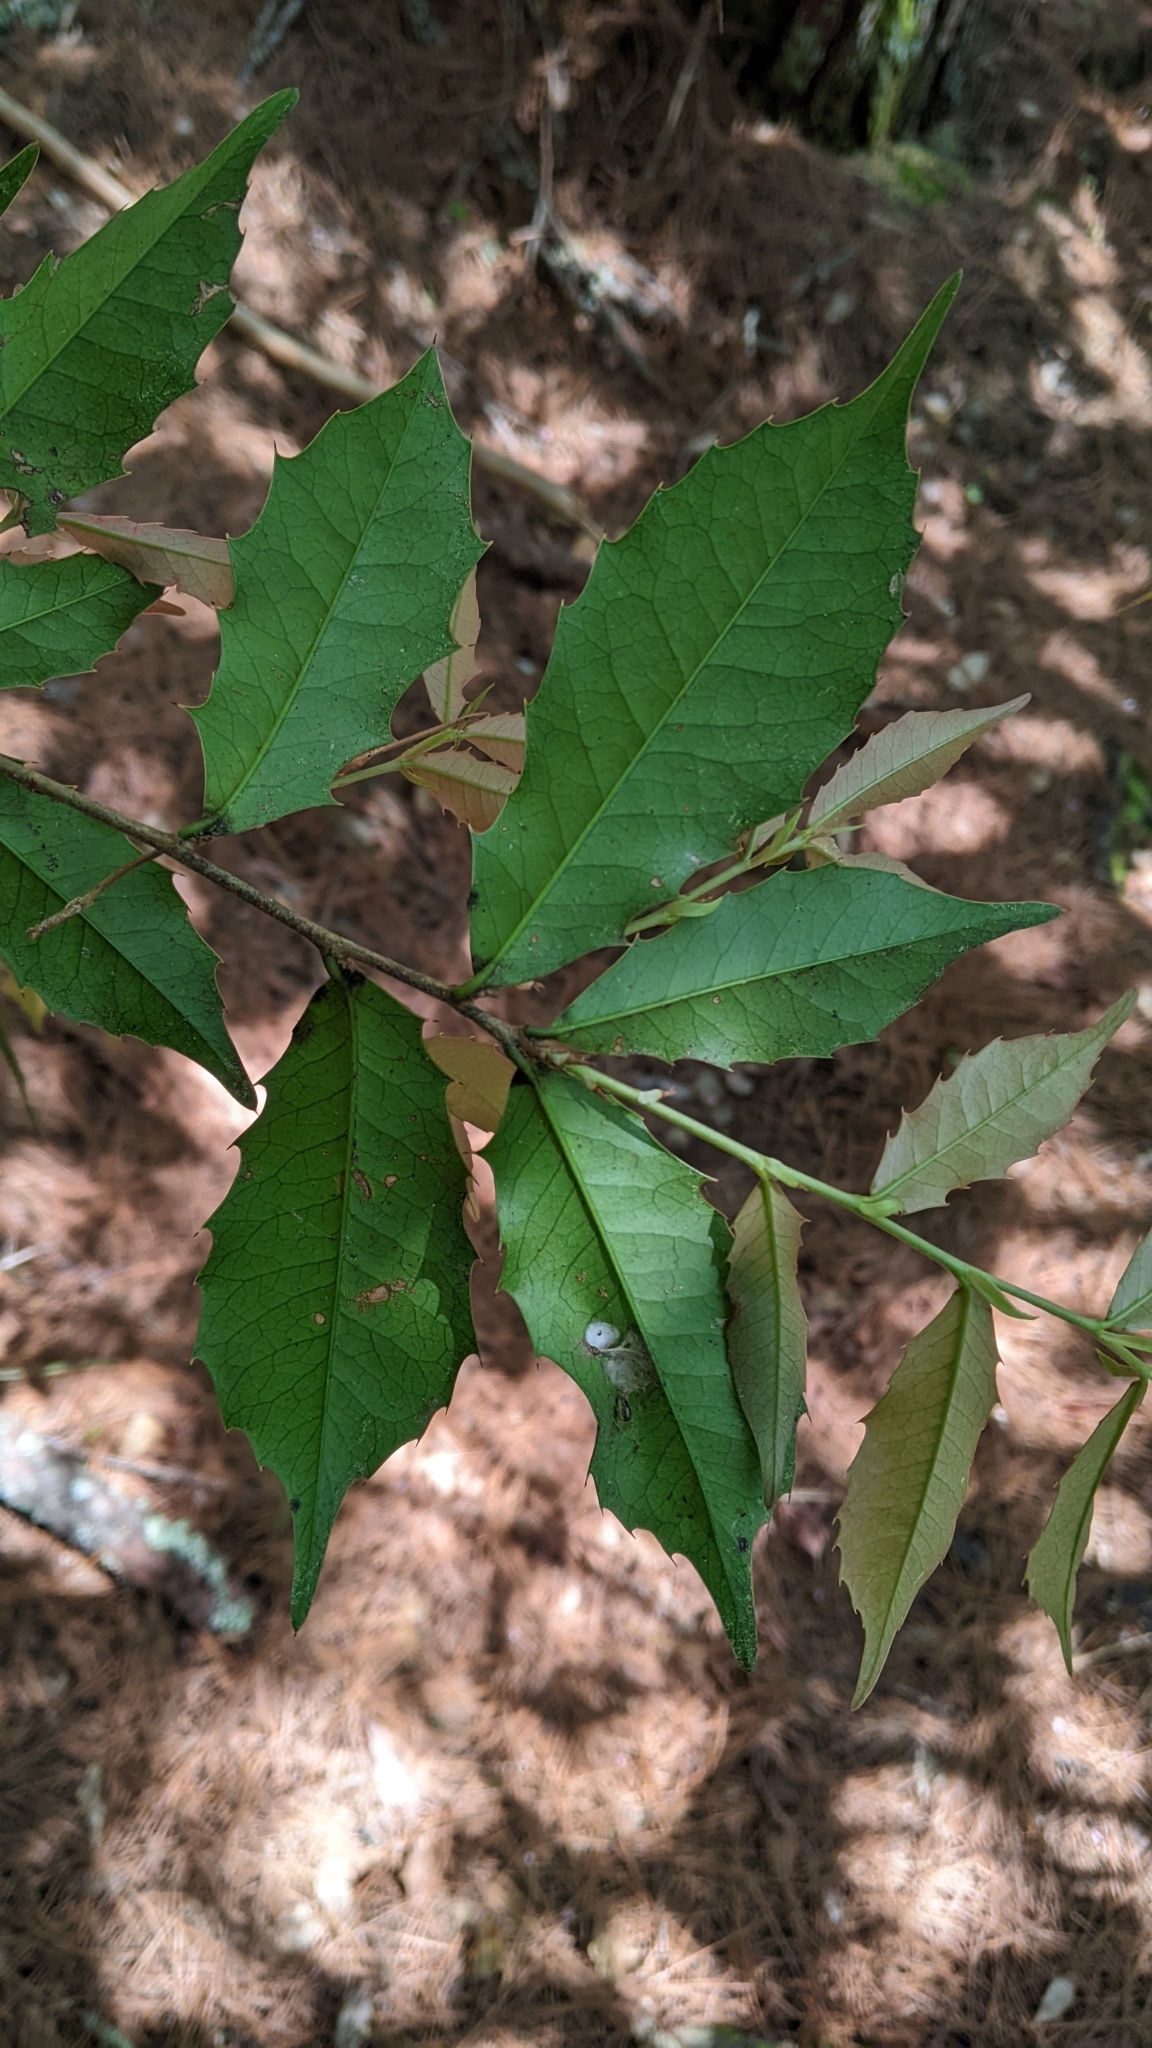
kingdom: Plantae
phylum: Tracheophyta
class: Magnoliopsida
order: Rosales
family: Rosaceae
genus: Prunus
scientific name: Prunus spinulosa
